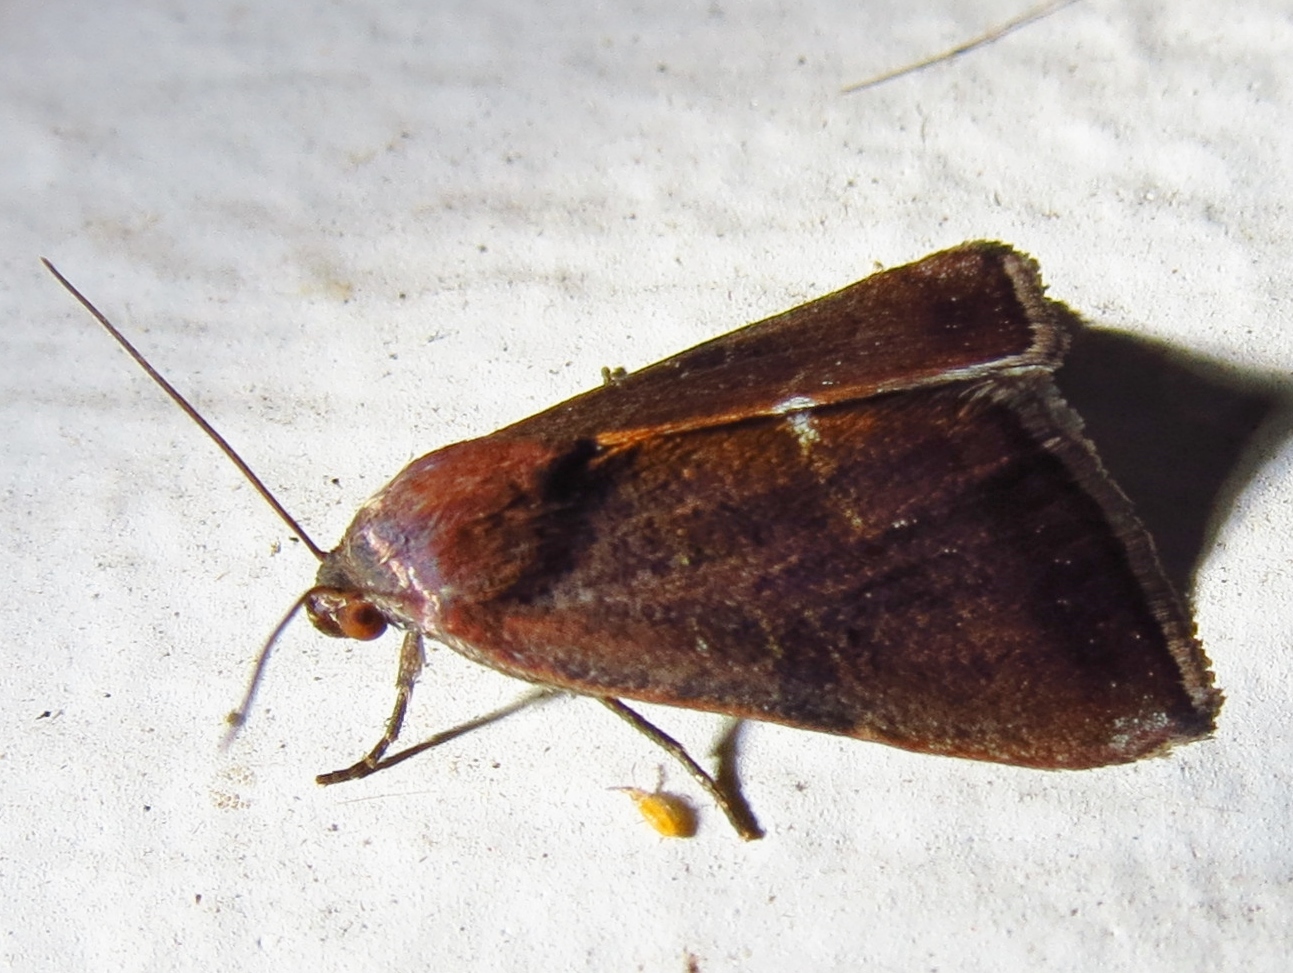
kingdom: Animalia
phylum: Arthropoda
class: Insecta
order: Lepidoptera
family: Noctuidae
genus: Galgula
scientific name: Galgula partita
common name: Wedgeling
